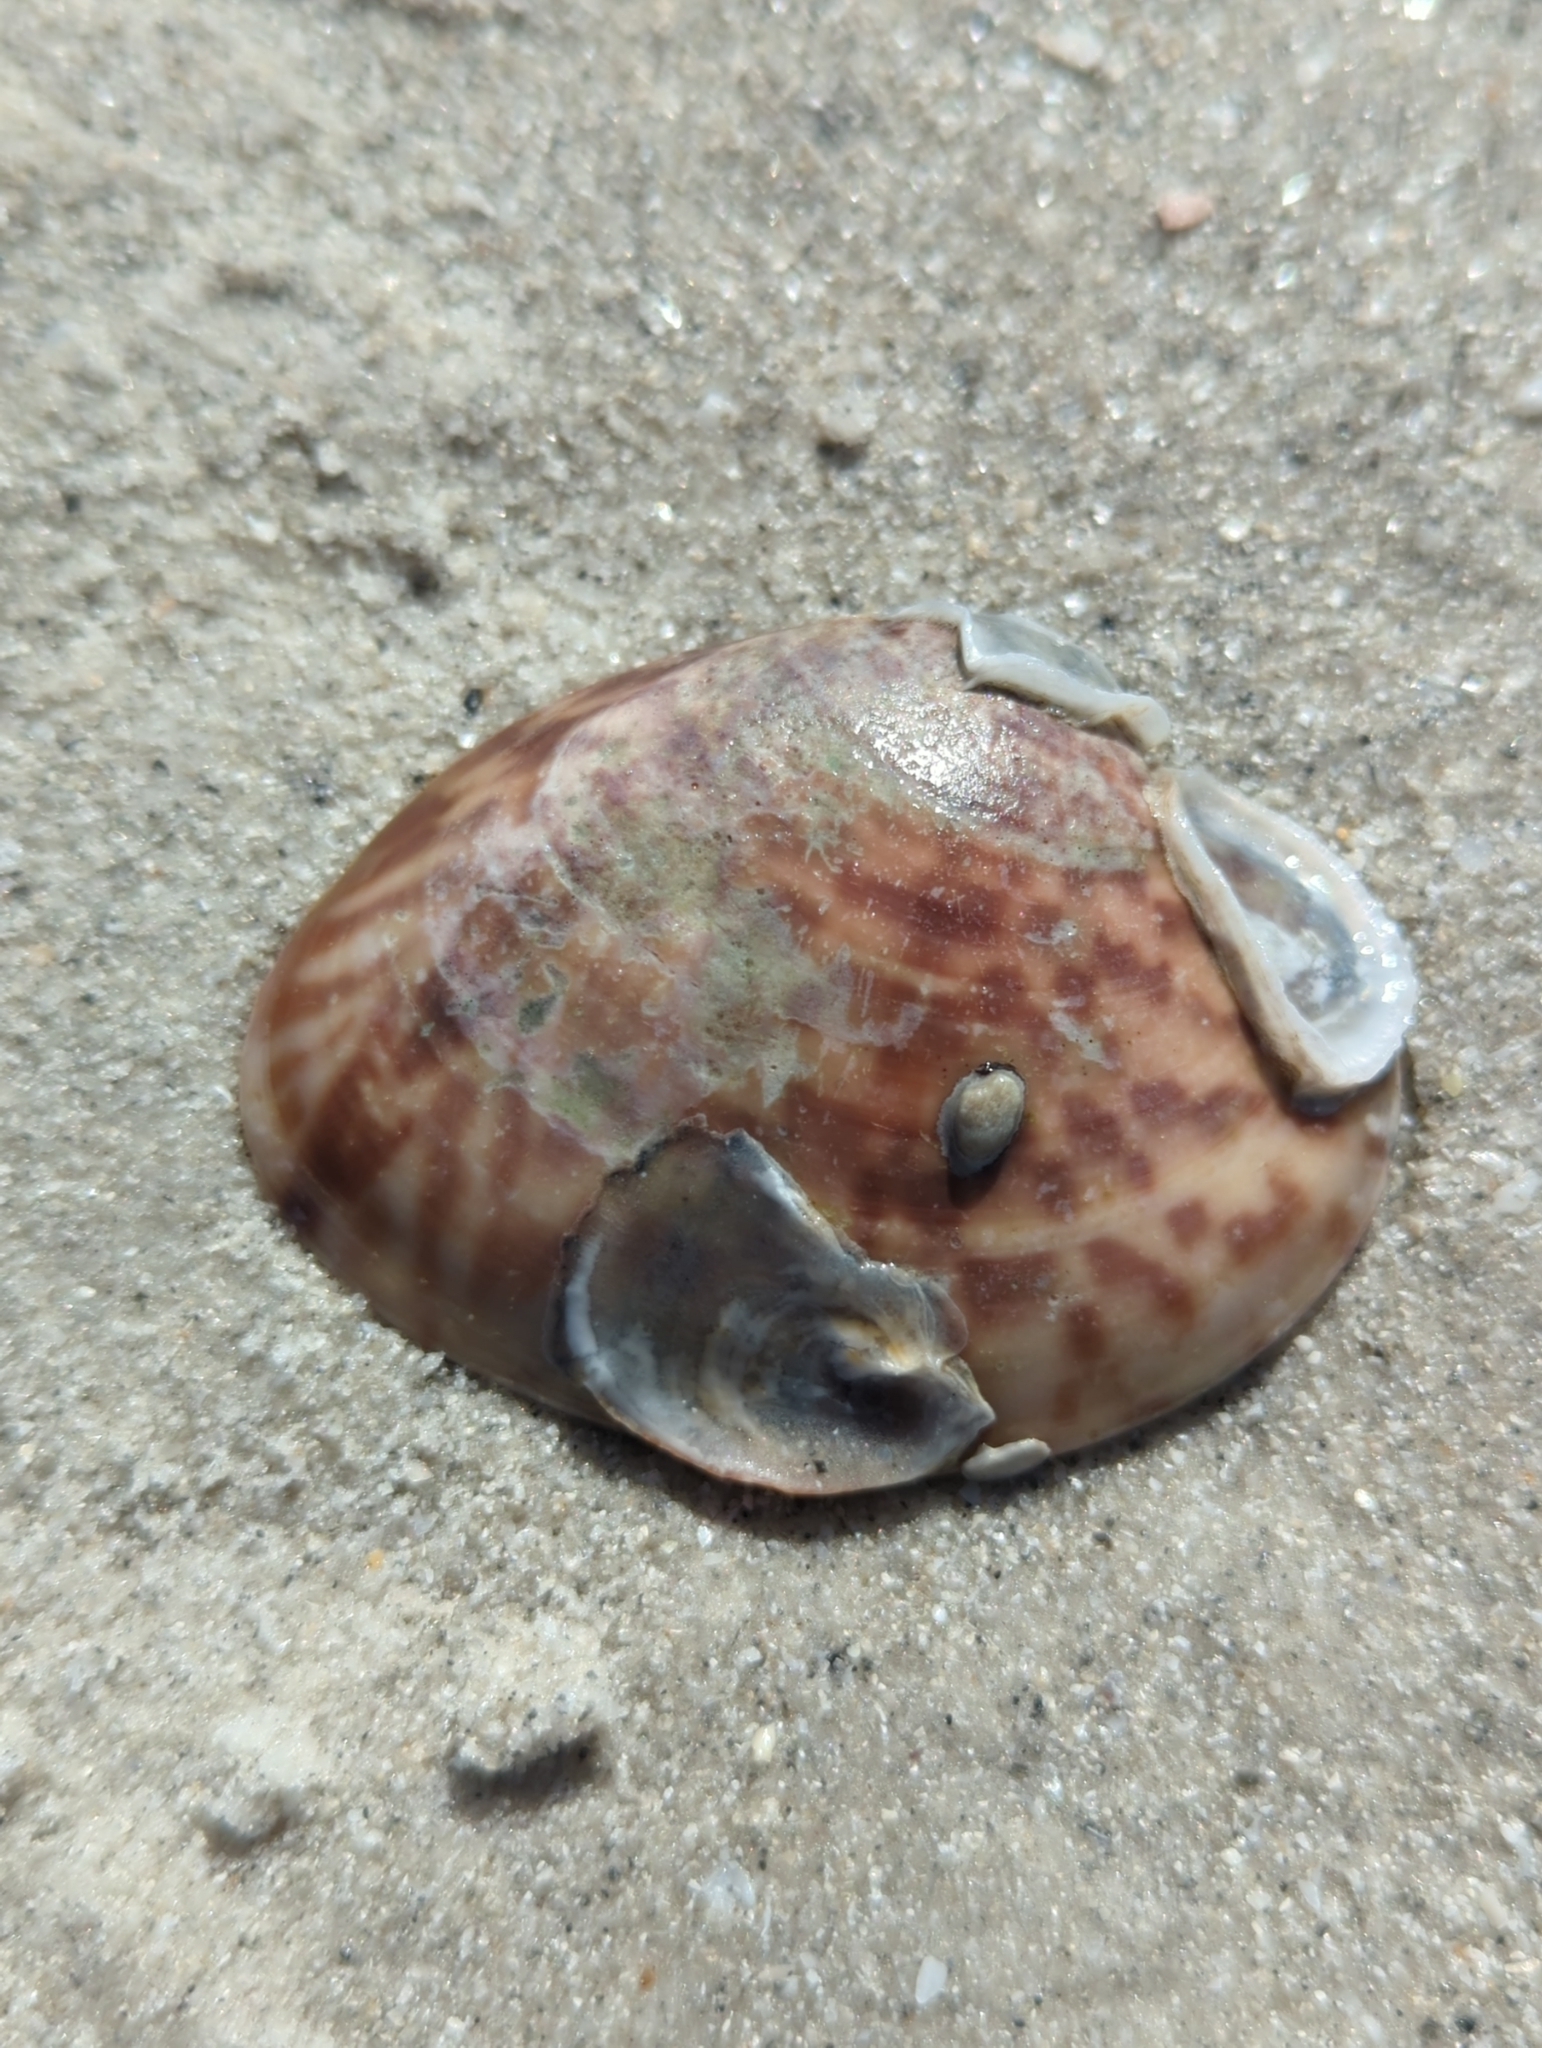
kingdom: Animalia
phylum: Mollusca
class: Bivalvia
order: Venerida
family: Veneridae
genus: Megapitaria
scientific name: Megapitaria maculata
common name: Calico clam
